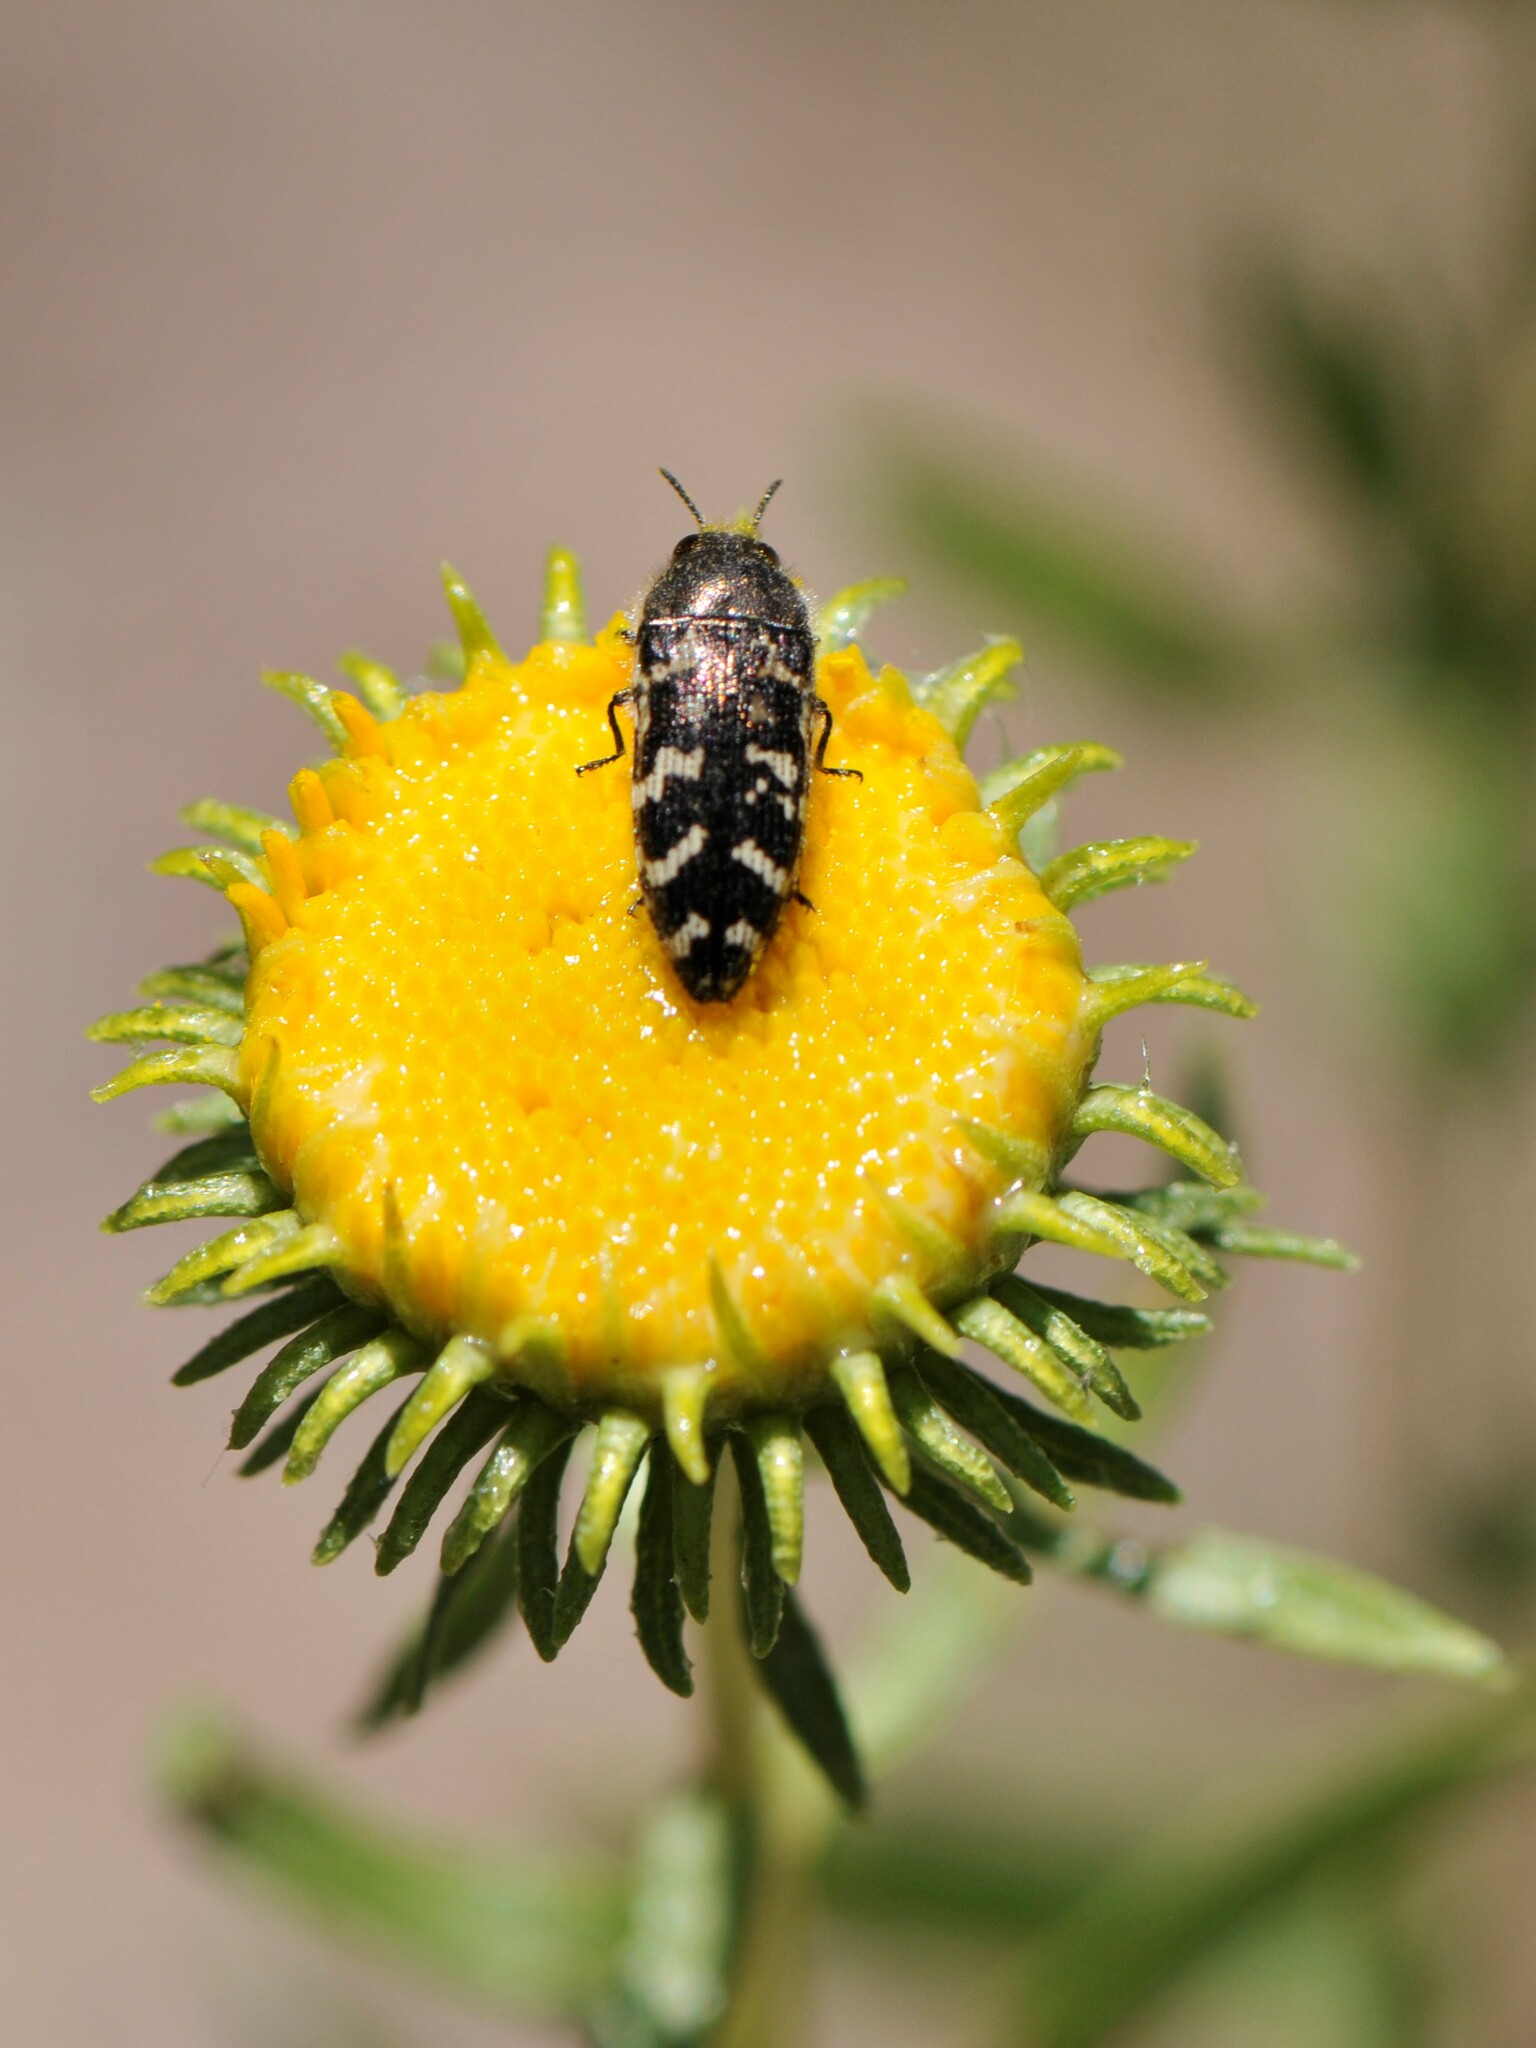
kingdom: Plantae
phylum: Tracheophyta
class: Magnoliopsida
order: Asterales
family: Asteraceae
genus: Grindelia
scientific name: Grindelia nuda
